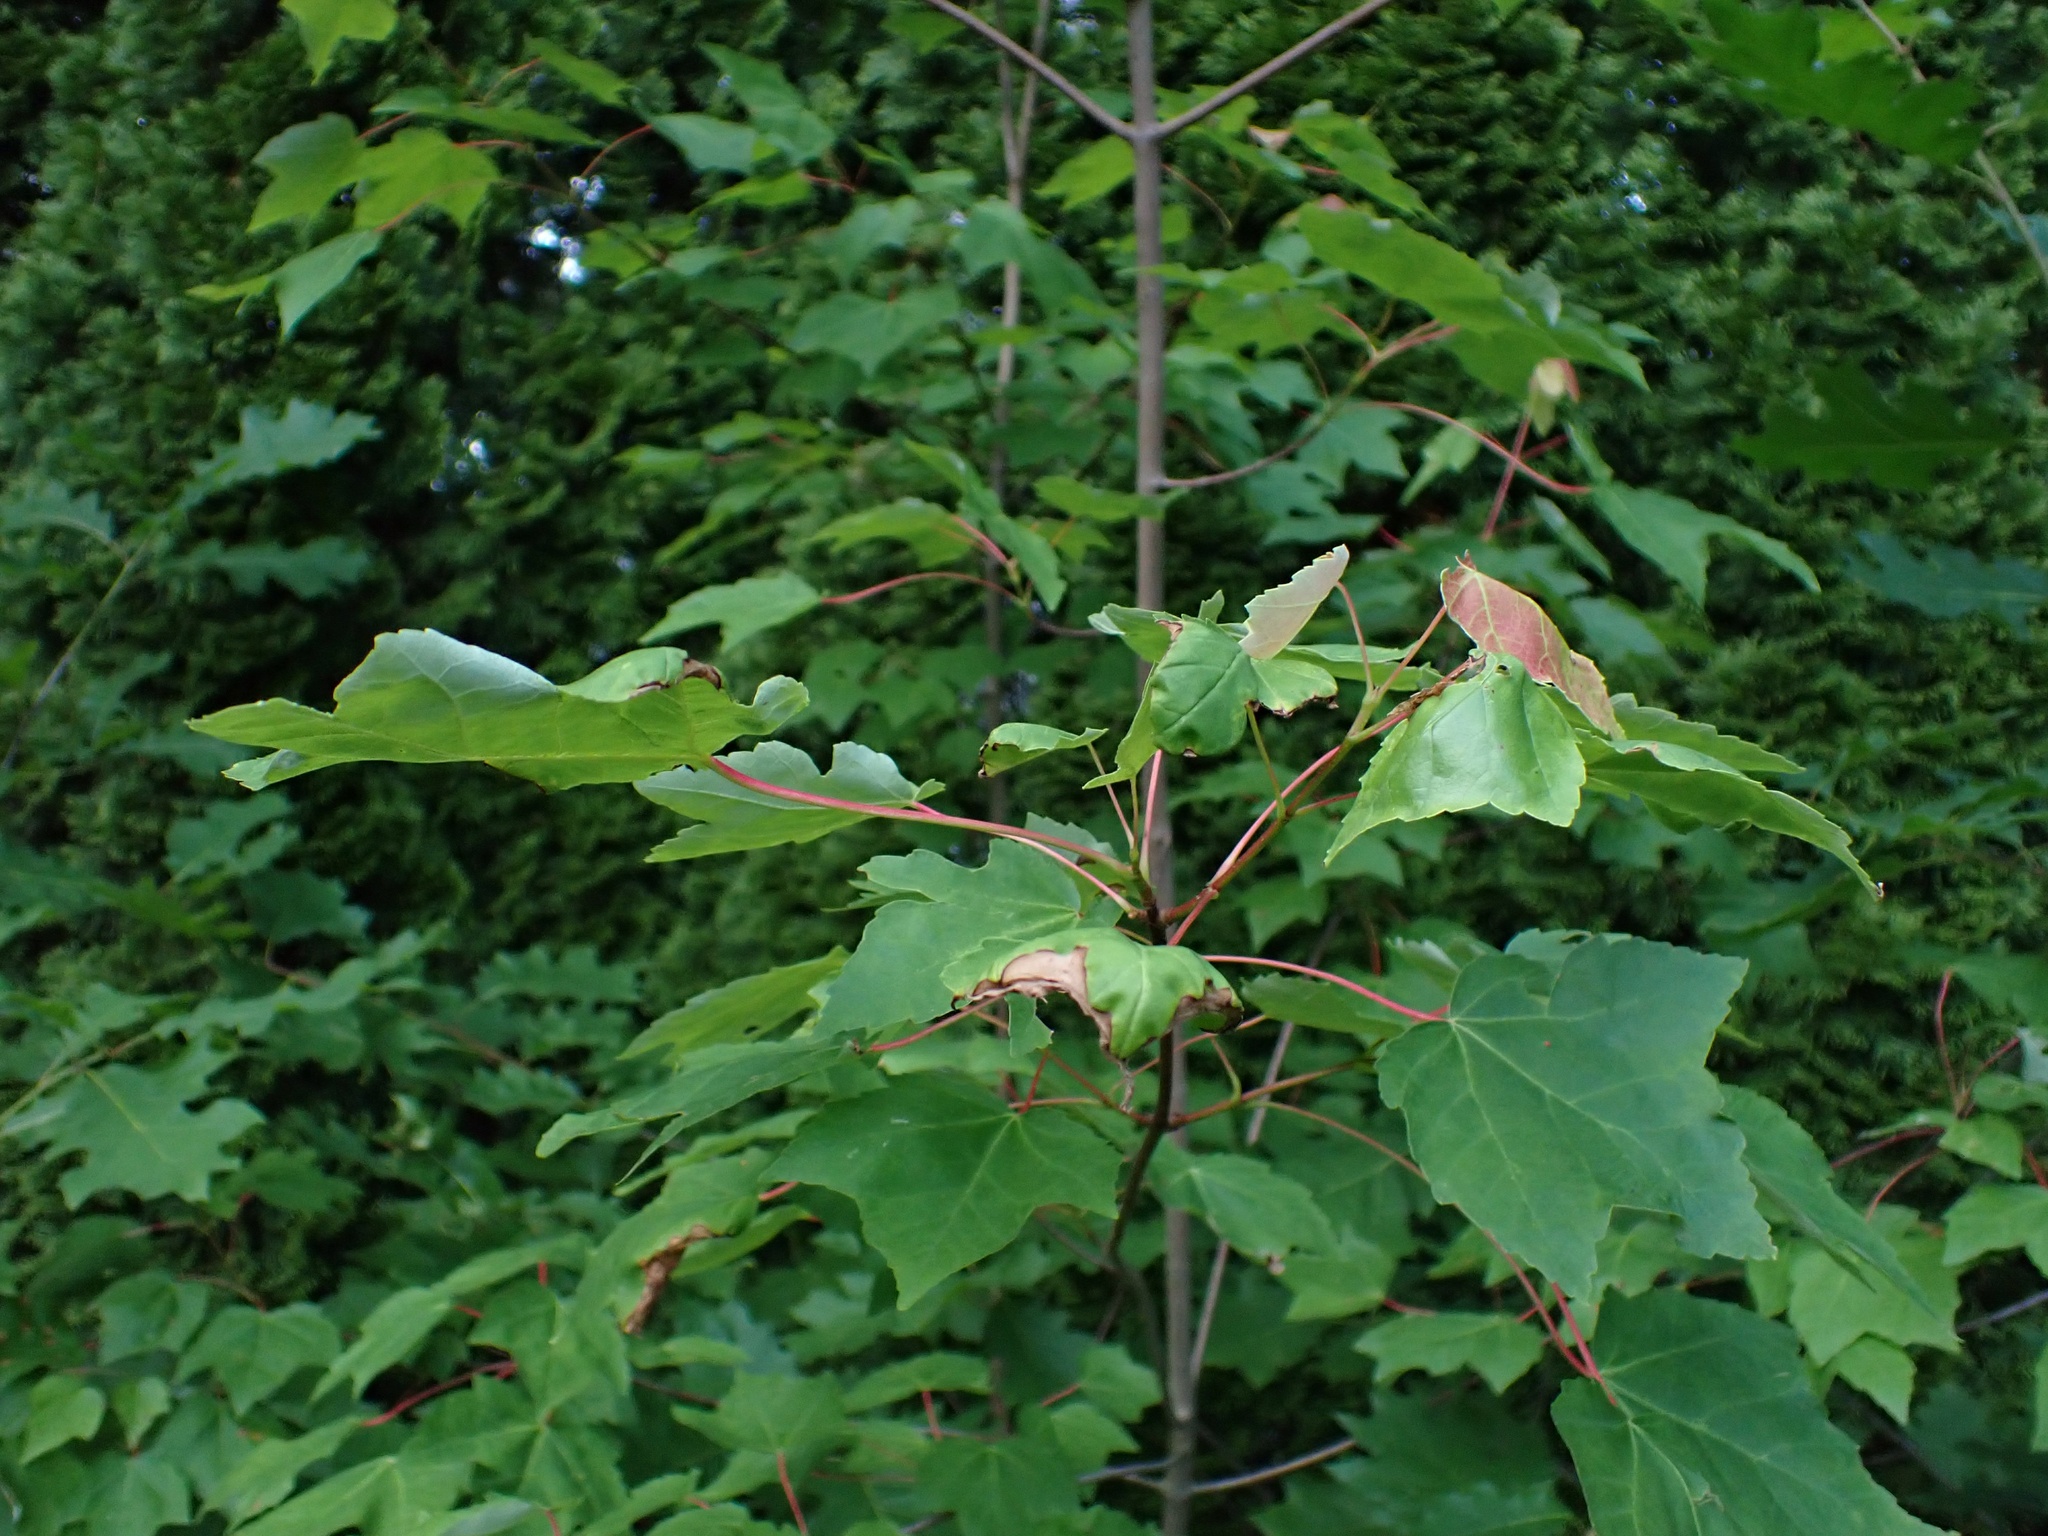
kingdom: Plantae
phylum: Tracheophyta
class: Magnoliopsida
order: Sapindales
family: Sapindaceae
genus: Acer
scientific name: Acer rubrum
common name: Red maple
